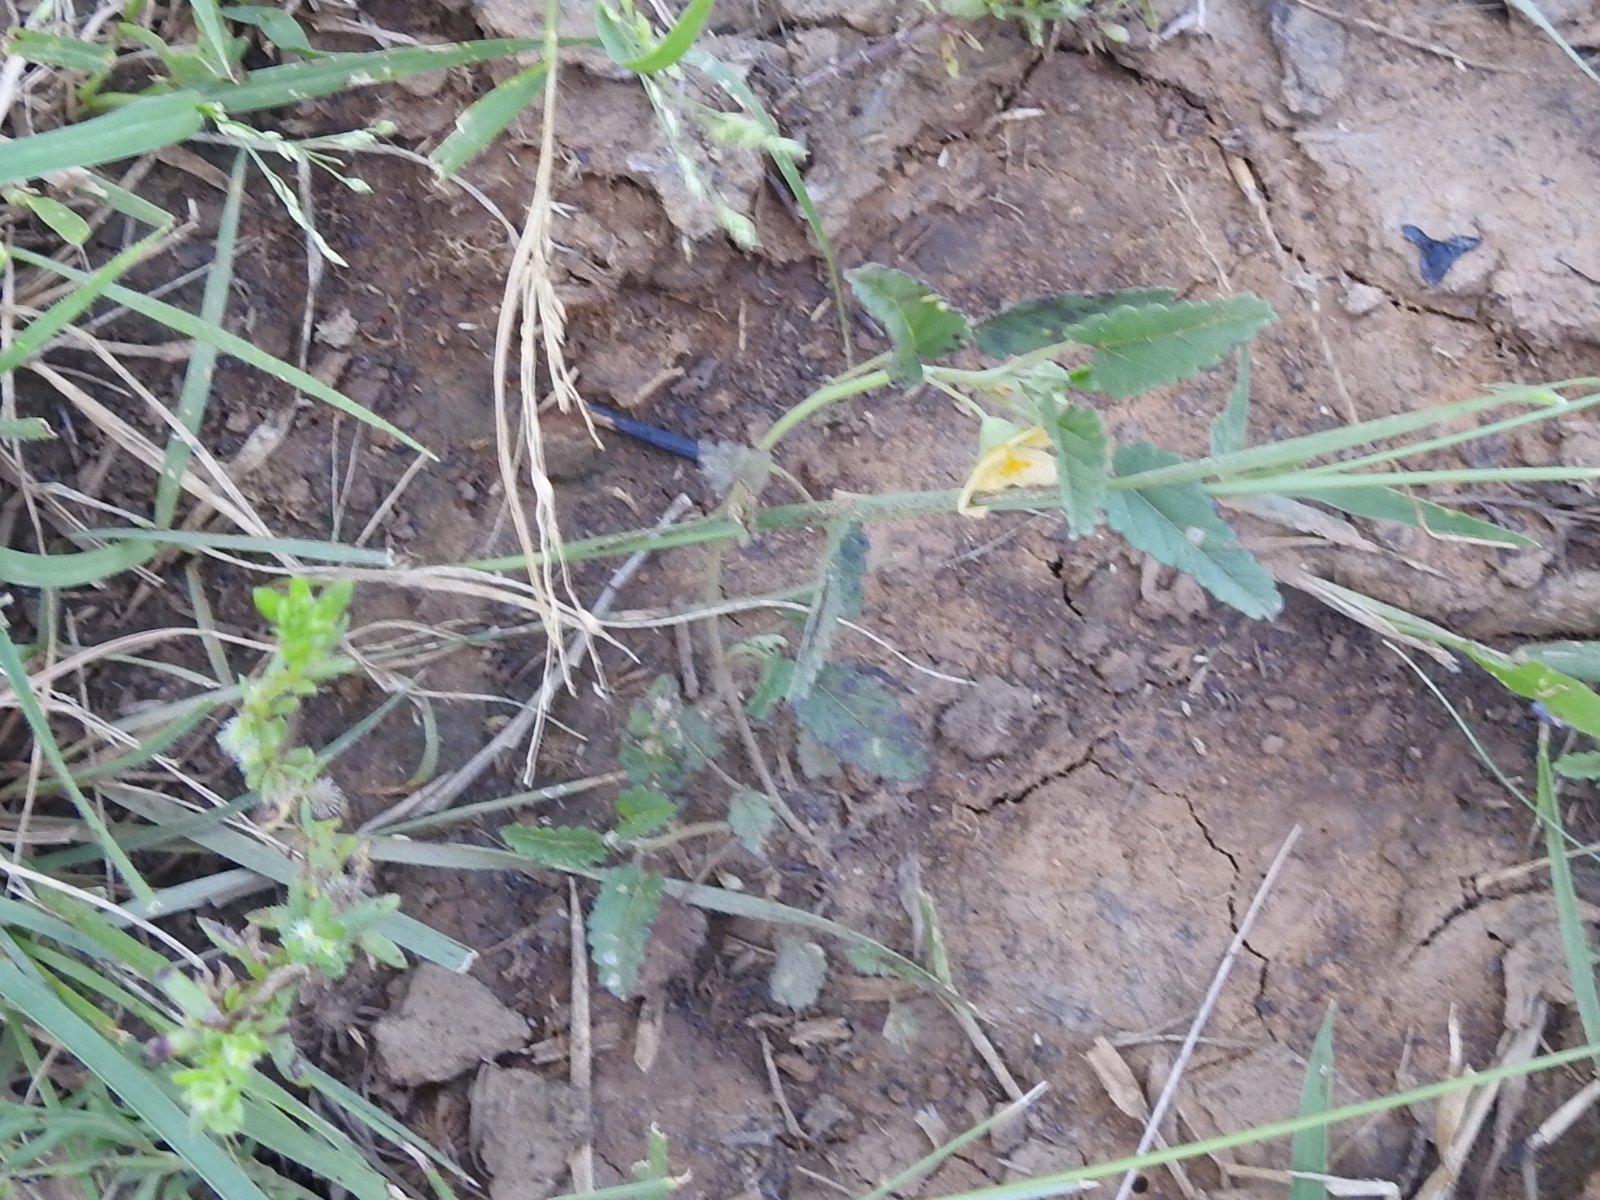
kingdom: Plantae
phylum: Tracheophyta
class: Magnoliopsida
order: Malvales
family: Malvaceae
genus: Sida
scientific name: Sida abutilifolia
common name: Spreading fanpetals
